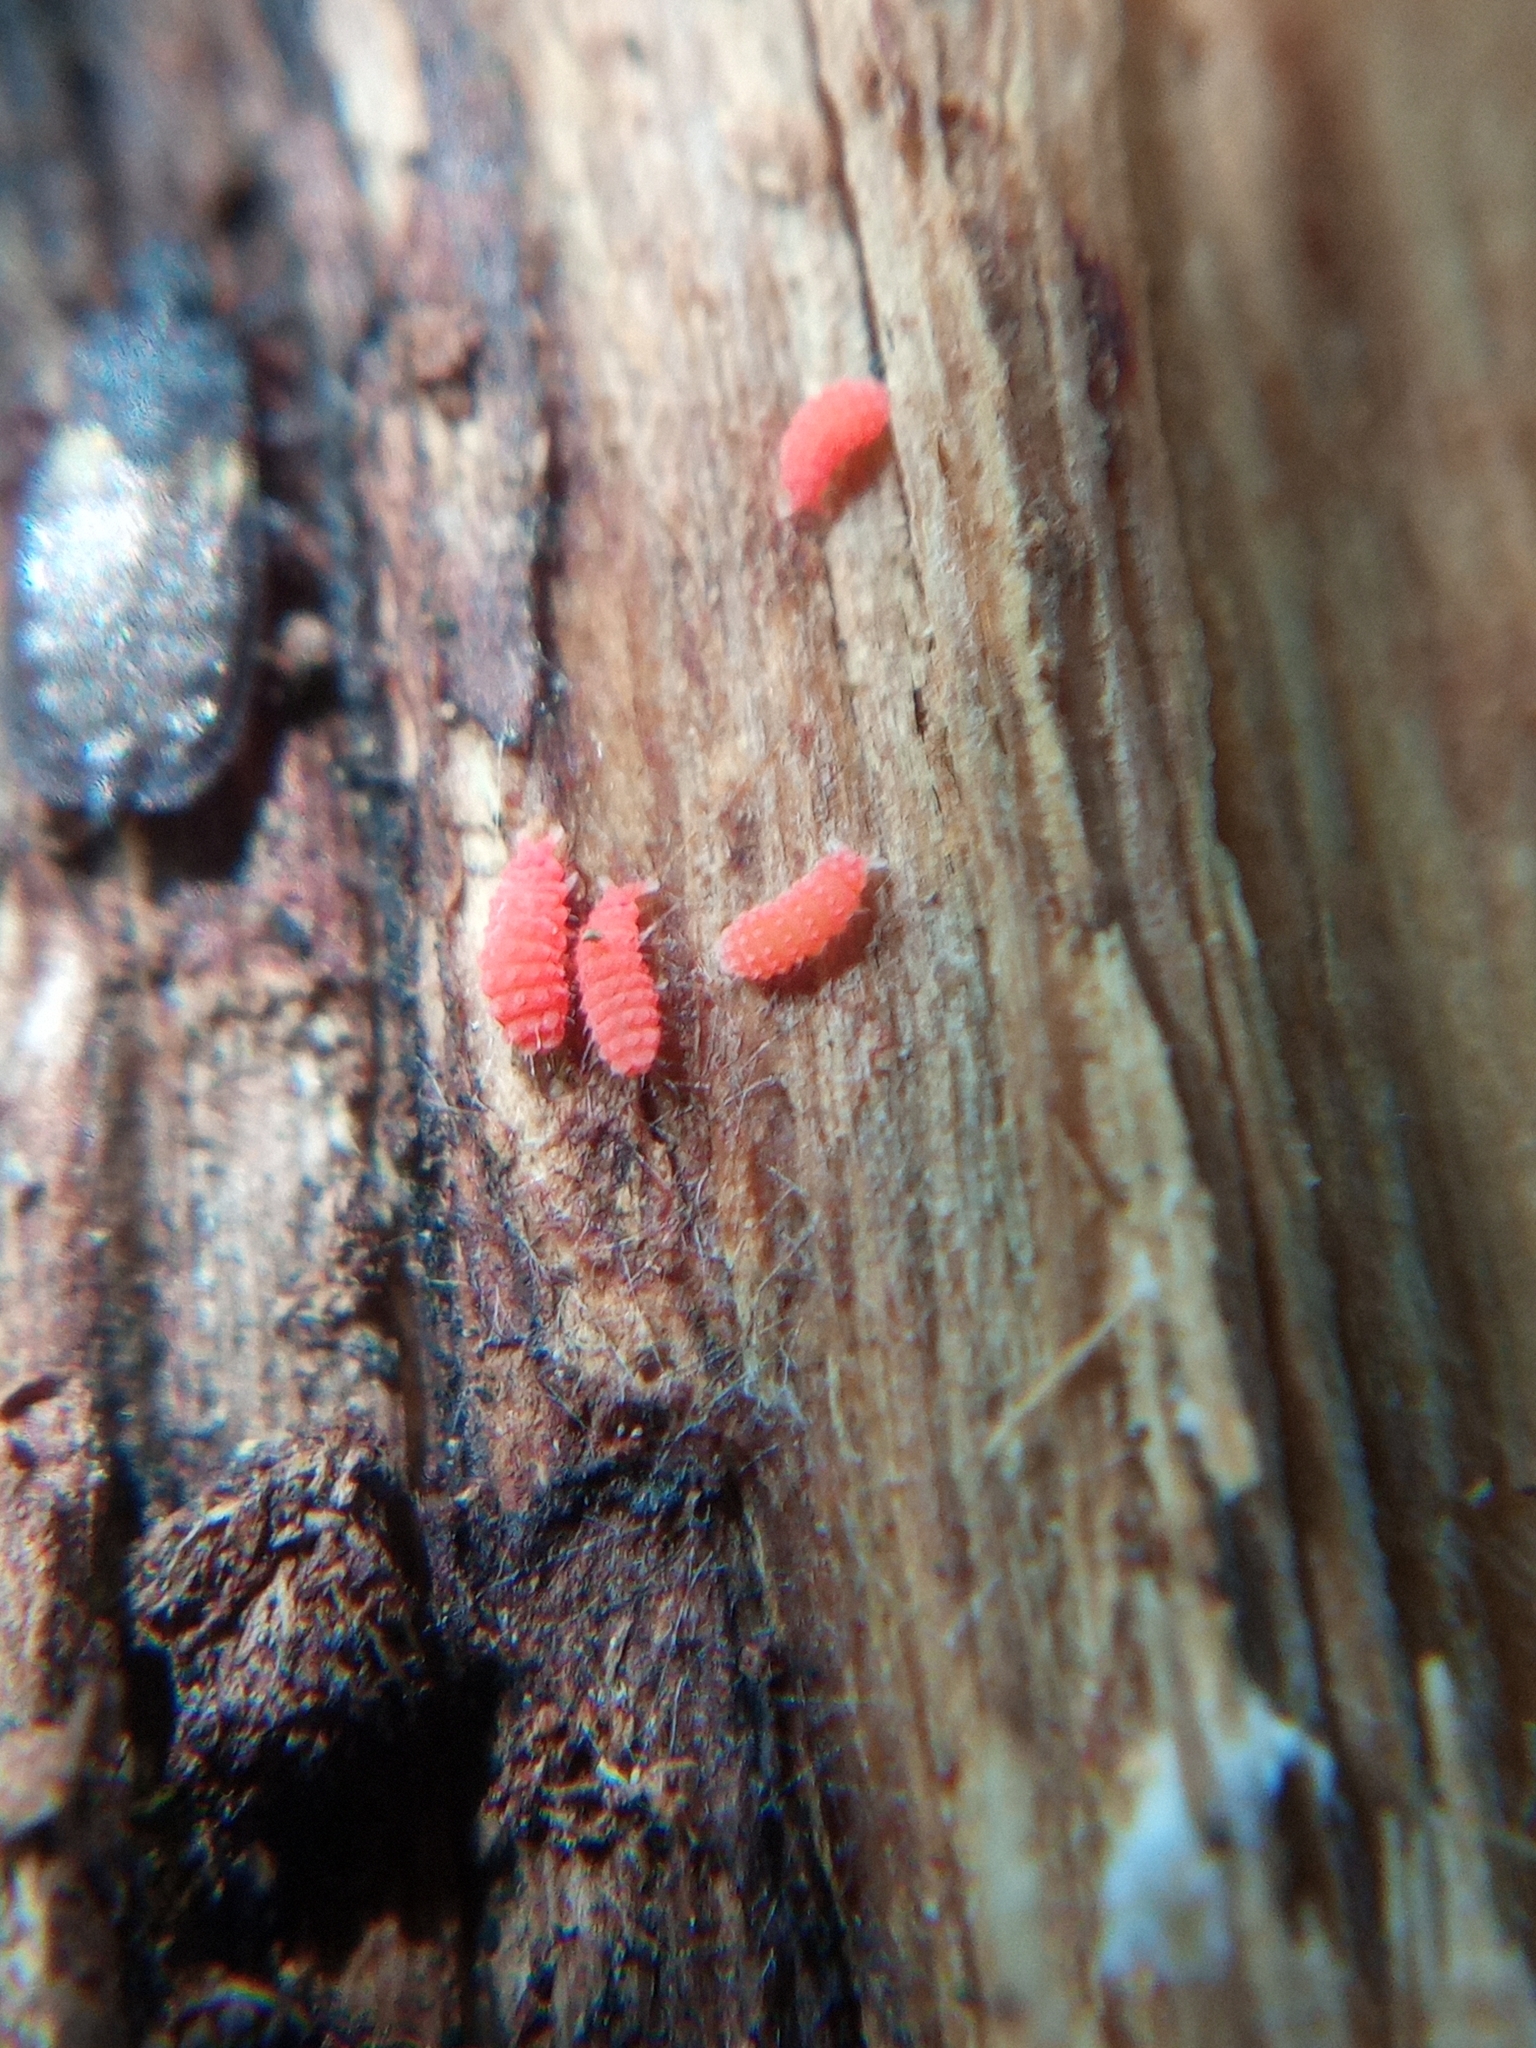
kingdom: Animalia
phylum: Arthropoda
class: Collembola
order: Poduromorpha
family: Neanuridae
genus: Bilobella
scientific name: Bilobella braunerae
